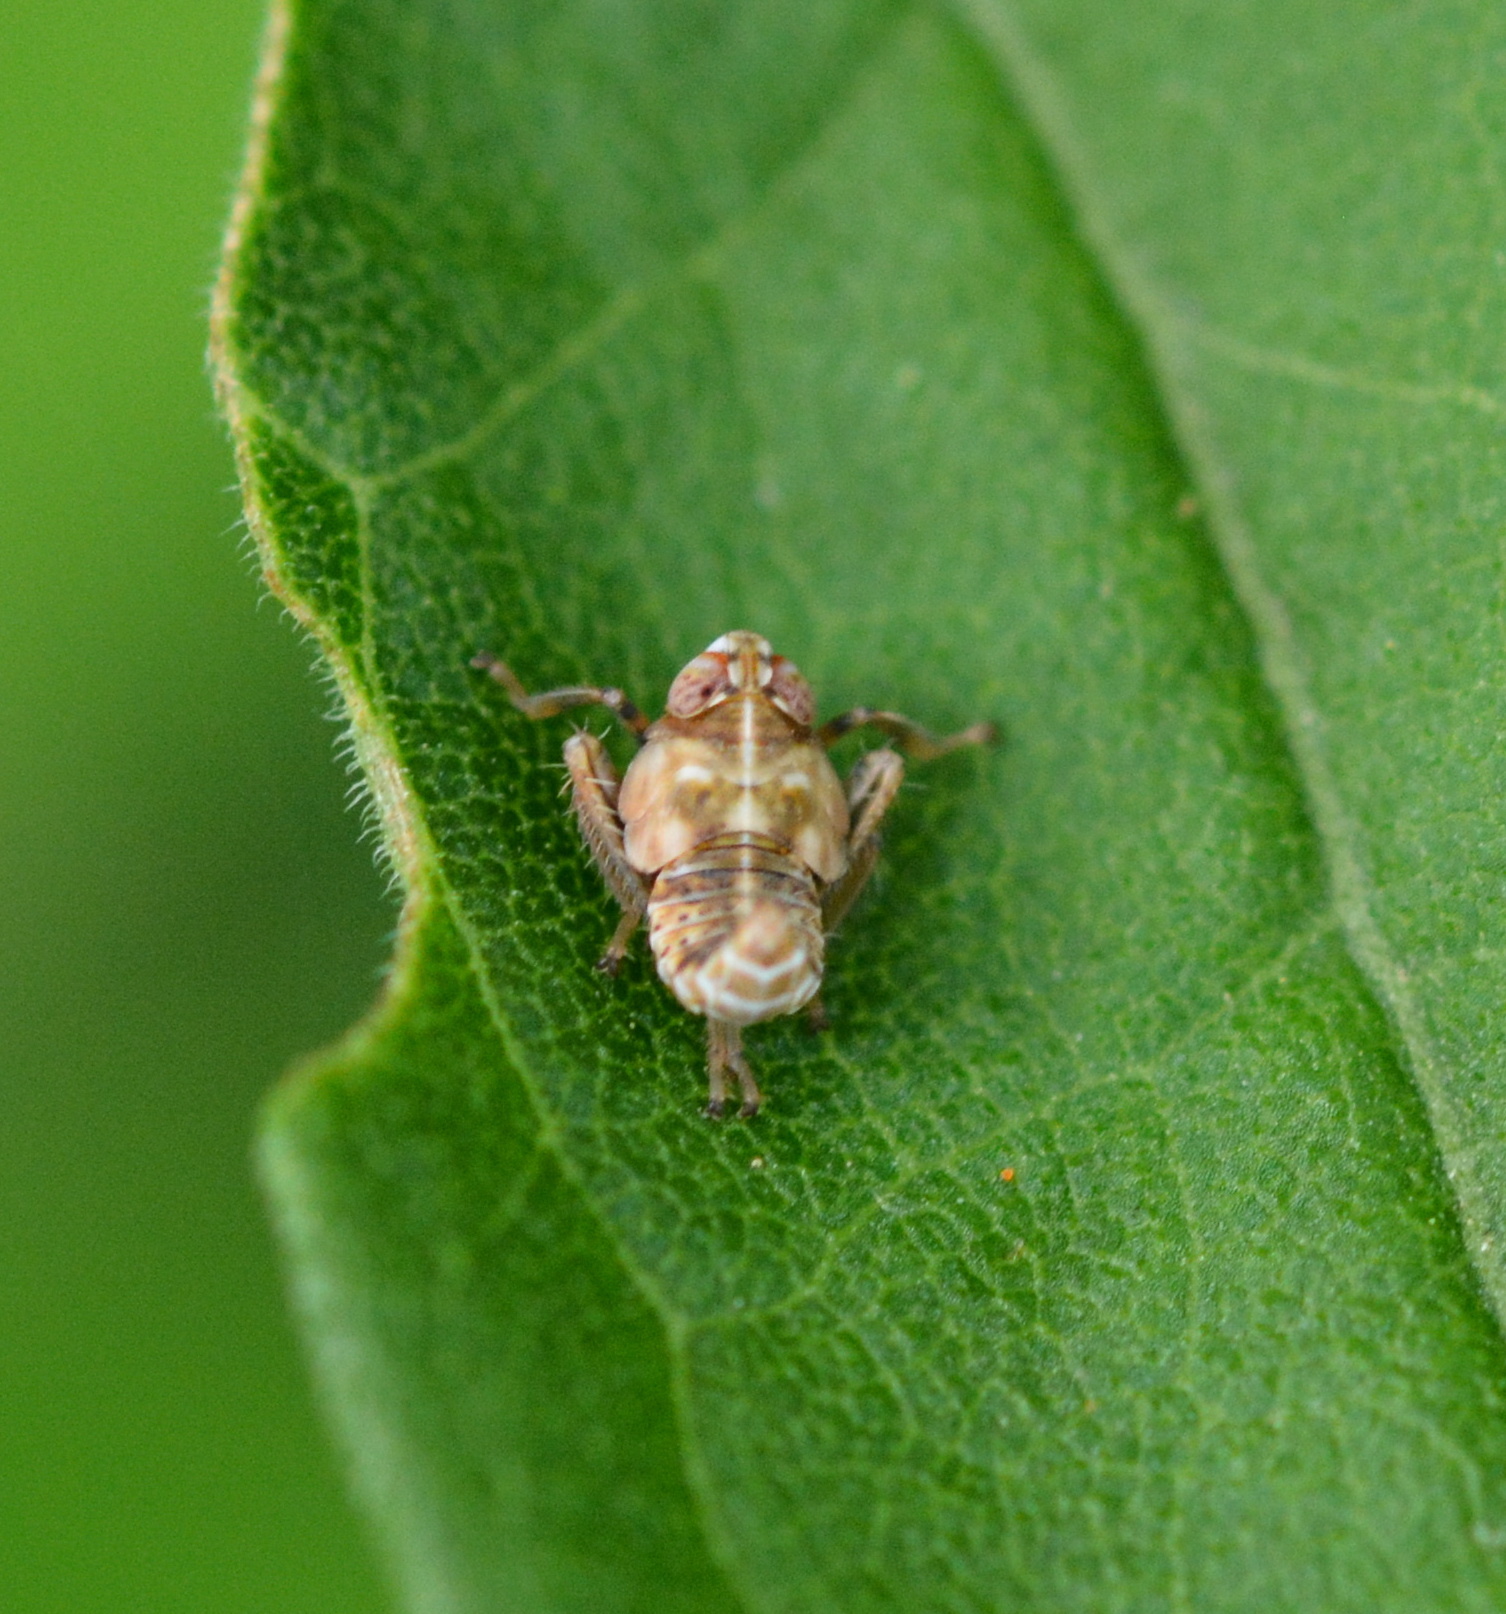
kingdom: Animalia
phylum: Arthropoda
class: Insecta
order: Hemiptera
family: Cicadellidae
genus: Jikradia
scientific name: Jikradia olitoria
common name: Coppery leafhopper
